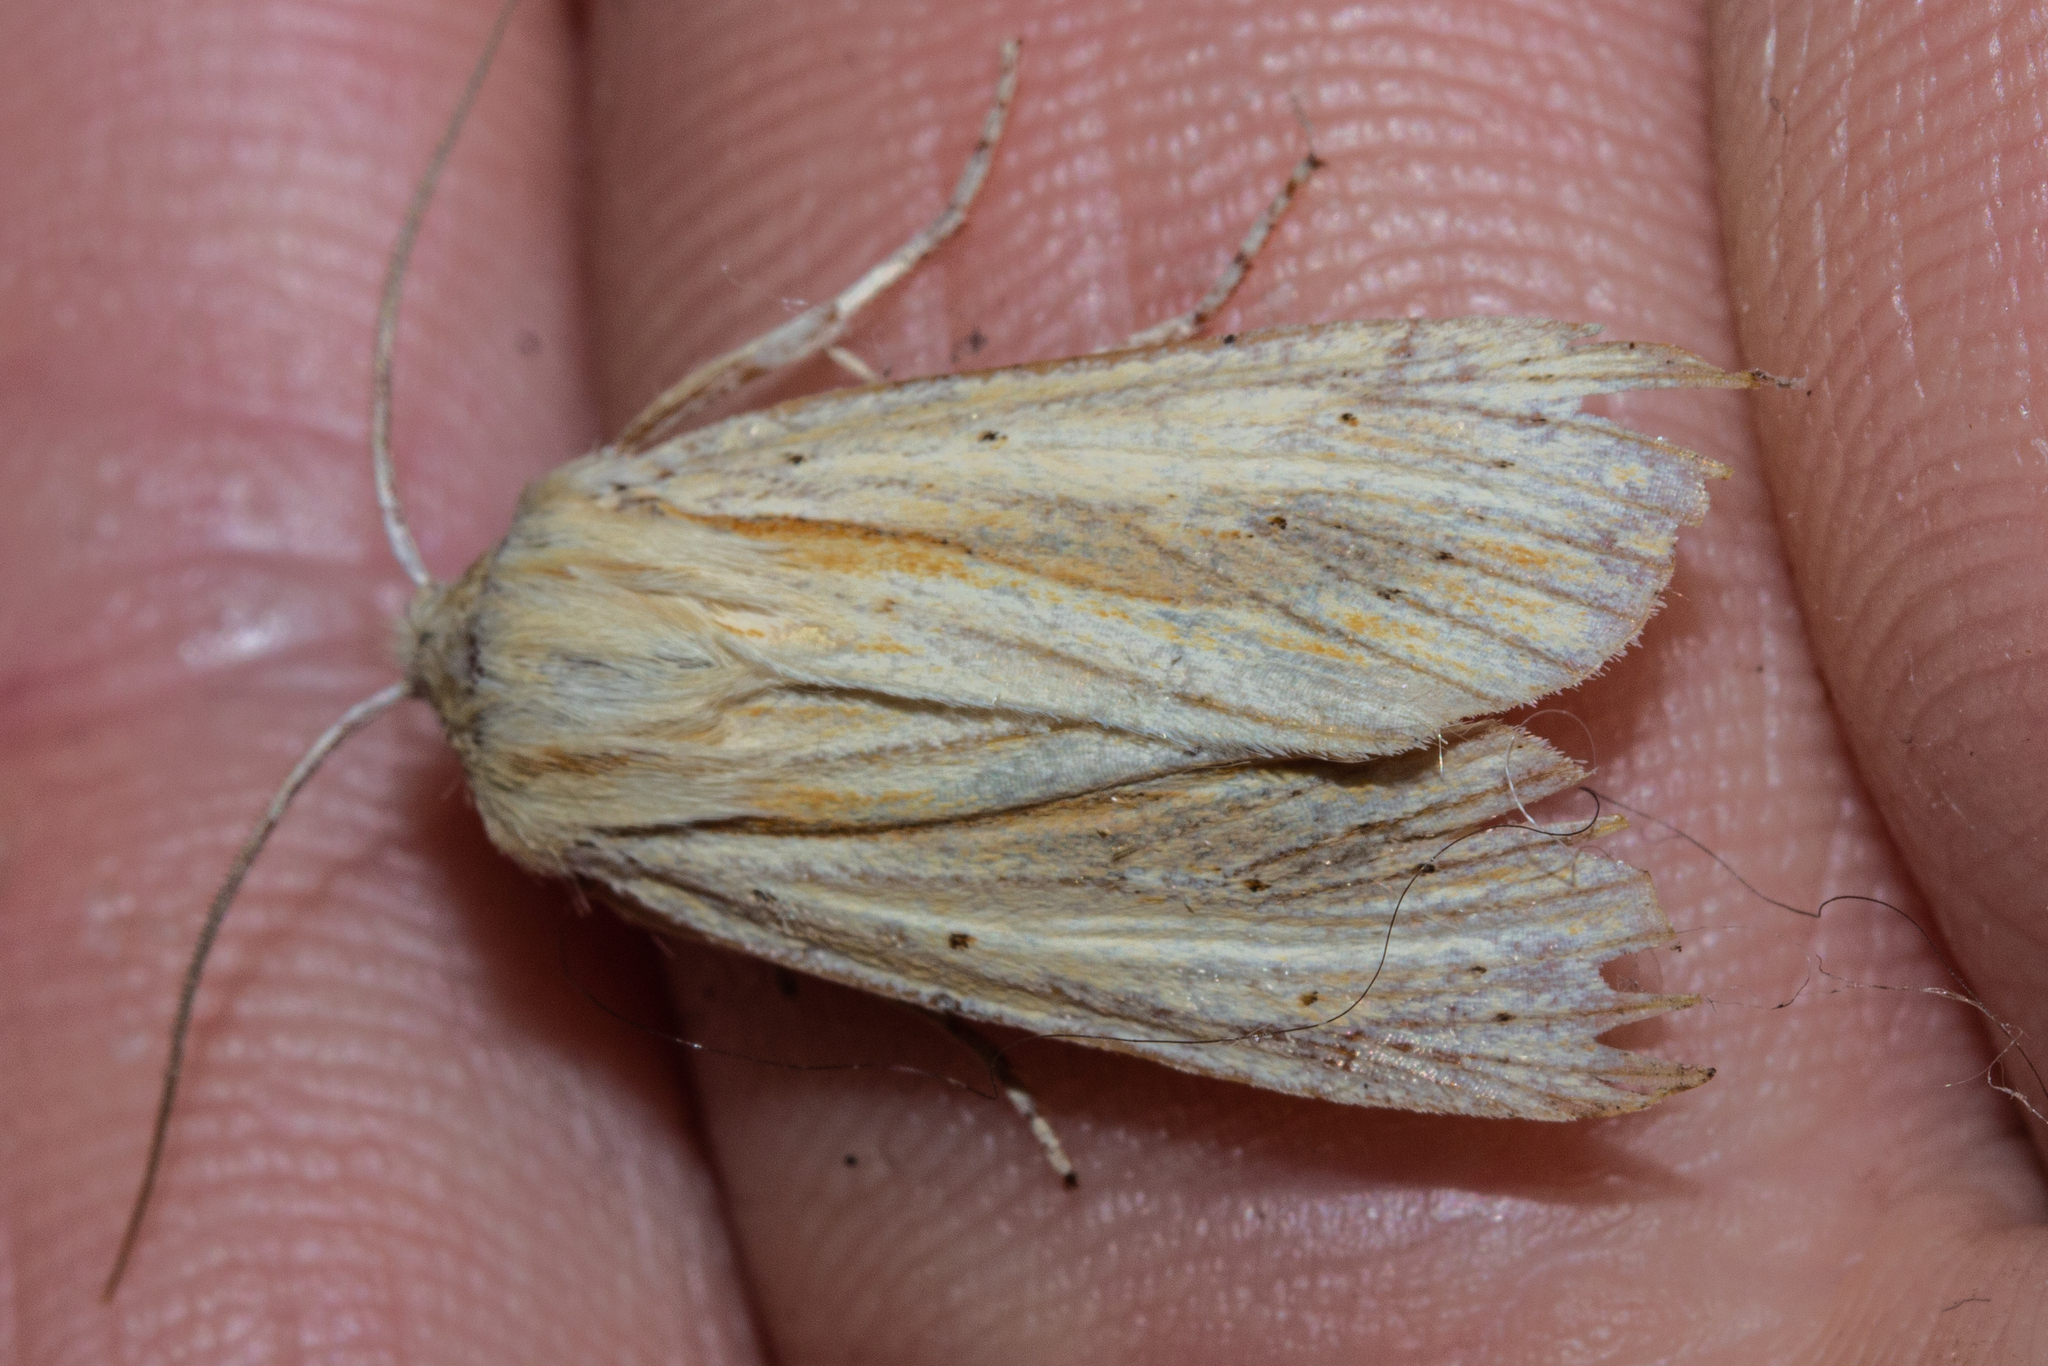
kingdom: Animalia
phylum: Arthropoda
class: Insecta
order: Lepidoptera
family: Noctuidae
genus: Ichneutica
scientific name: Ichneutica semivittata
